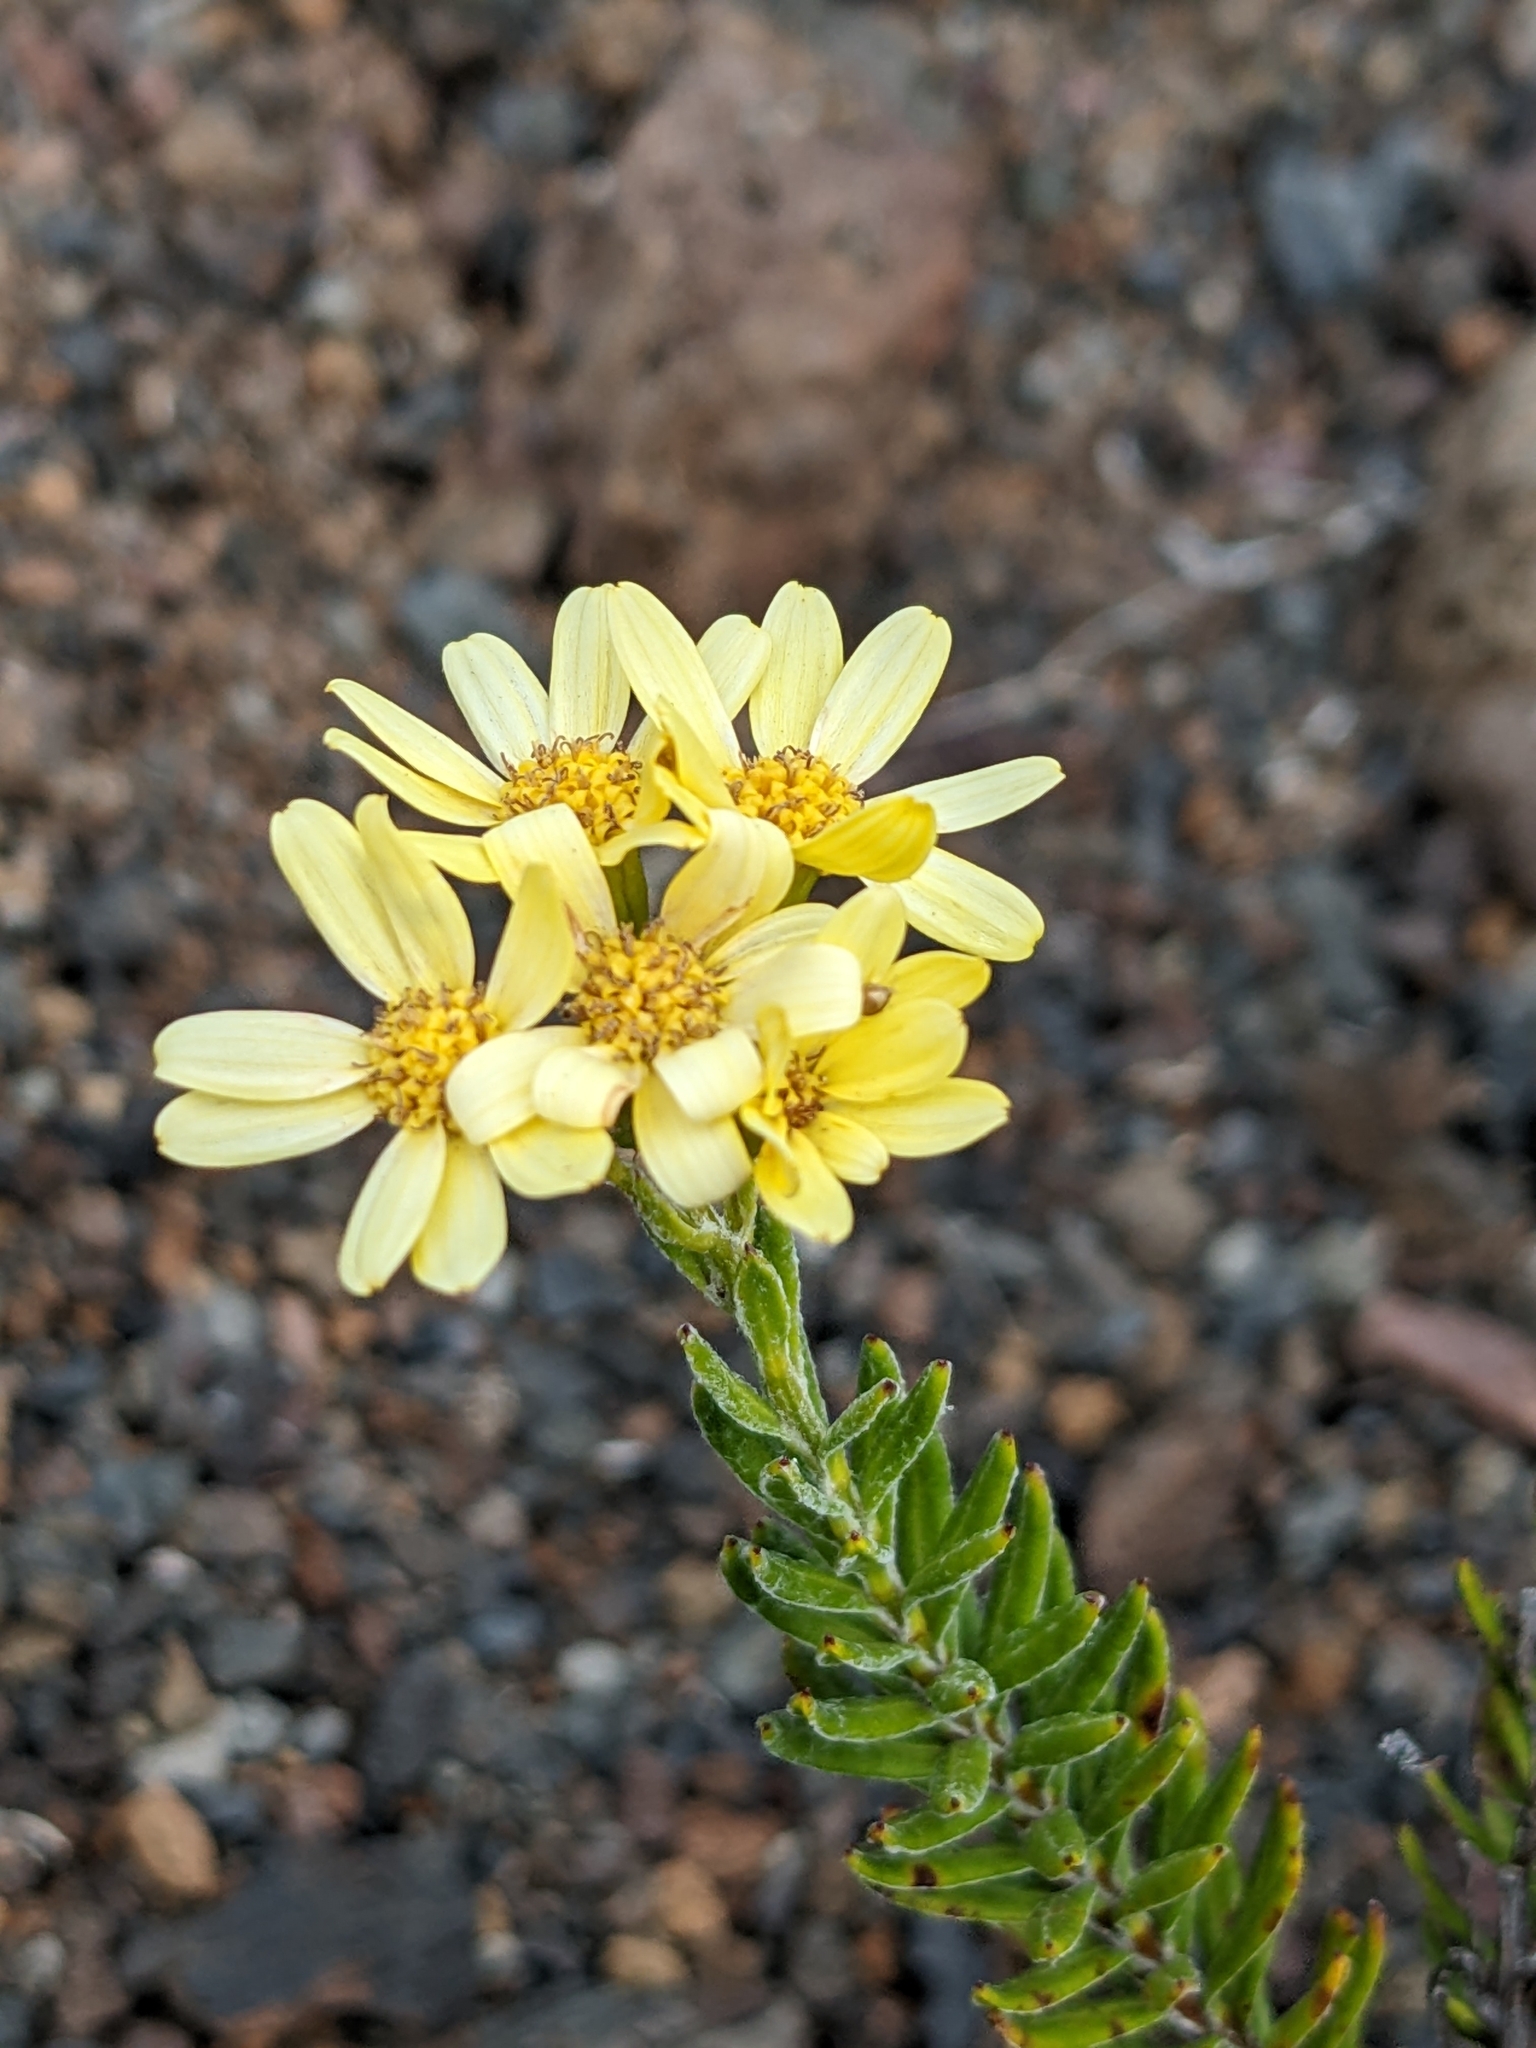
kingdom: Plantae
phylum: Tracheophyta
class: Magnoliopsida
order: Asterales
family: Asteraceae
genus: Hubertia
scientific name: Hubertia tomentosa
